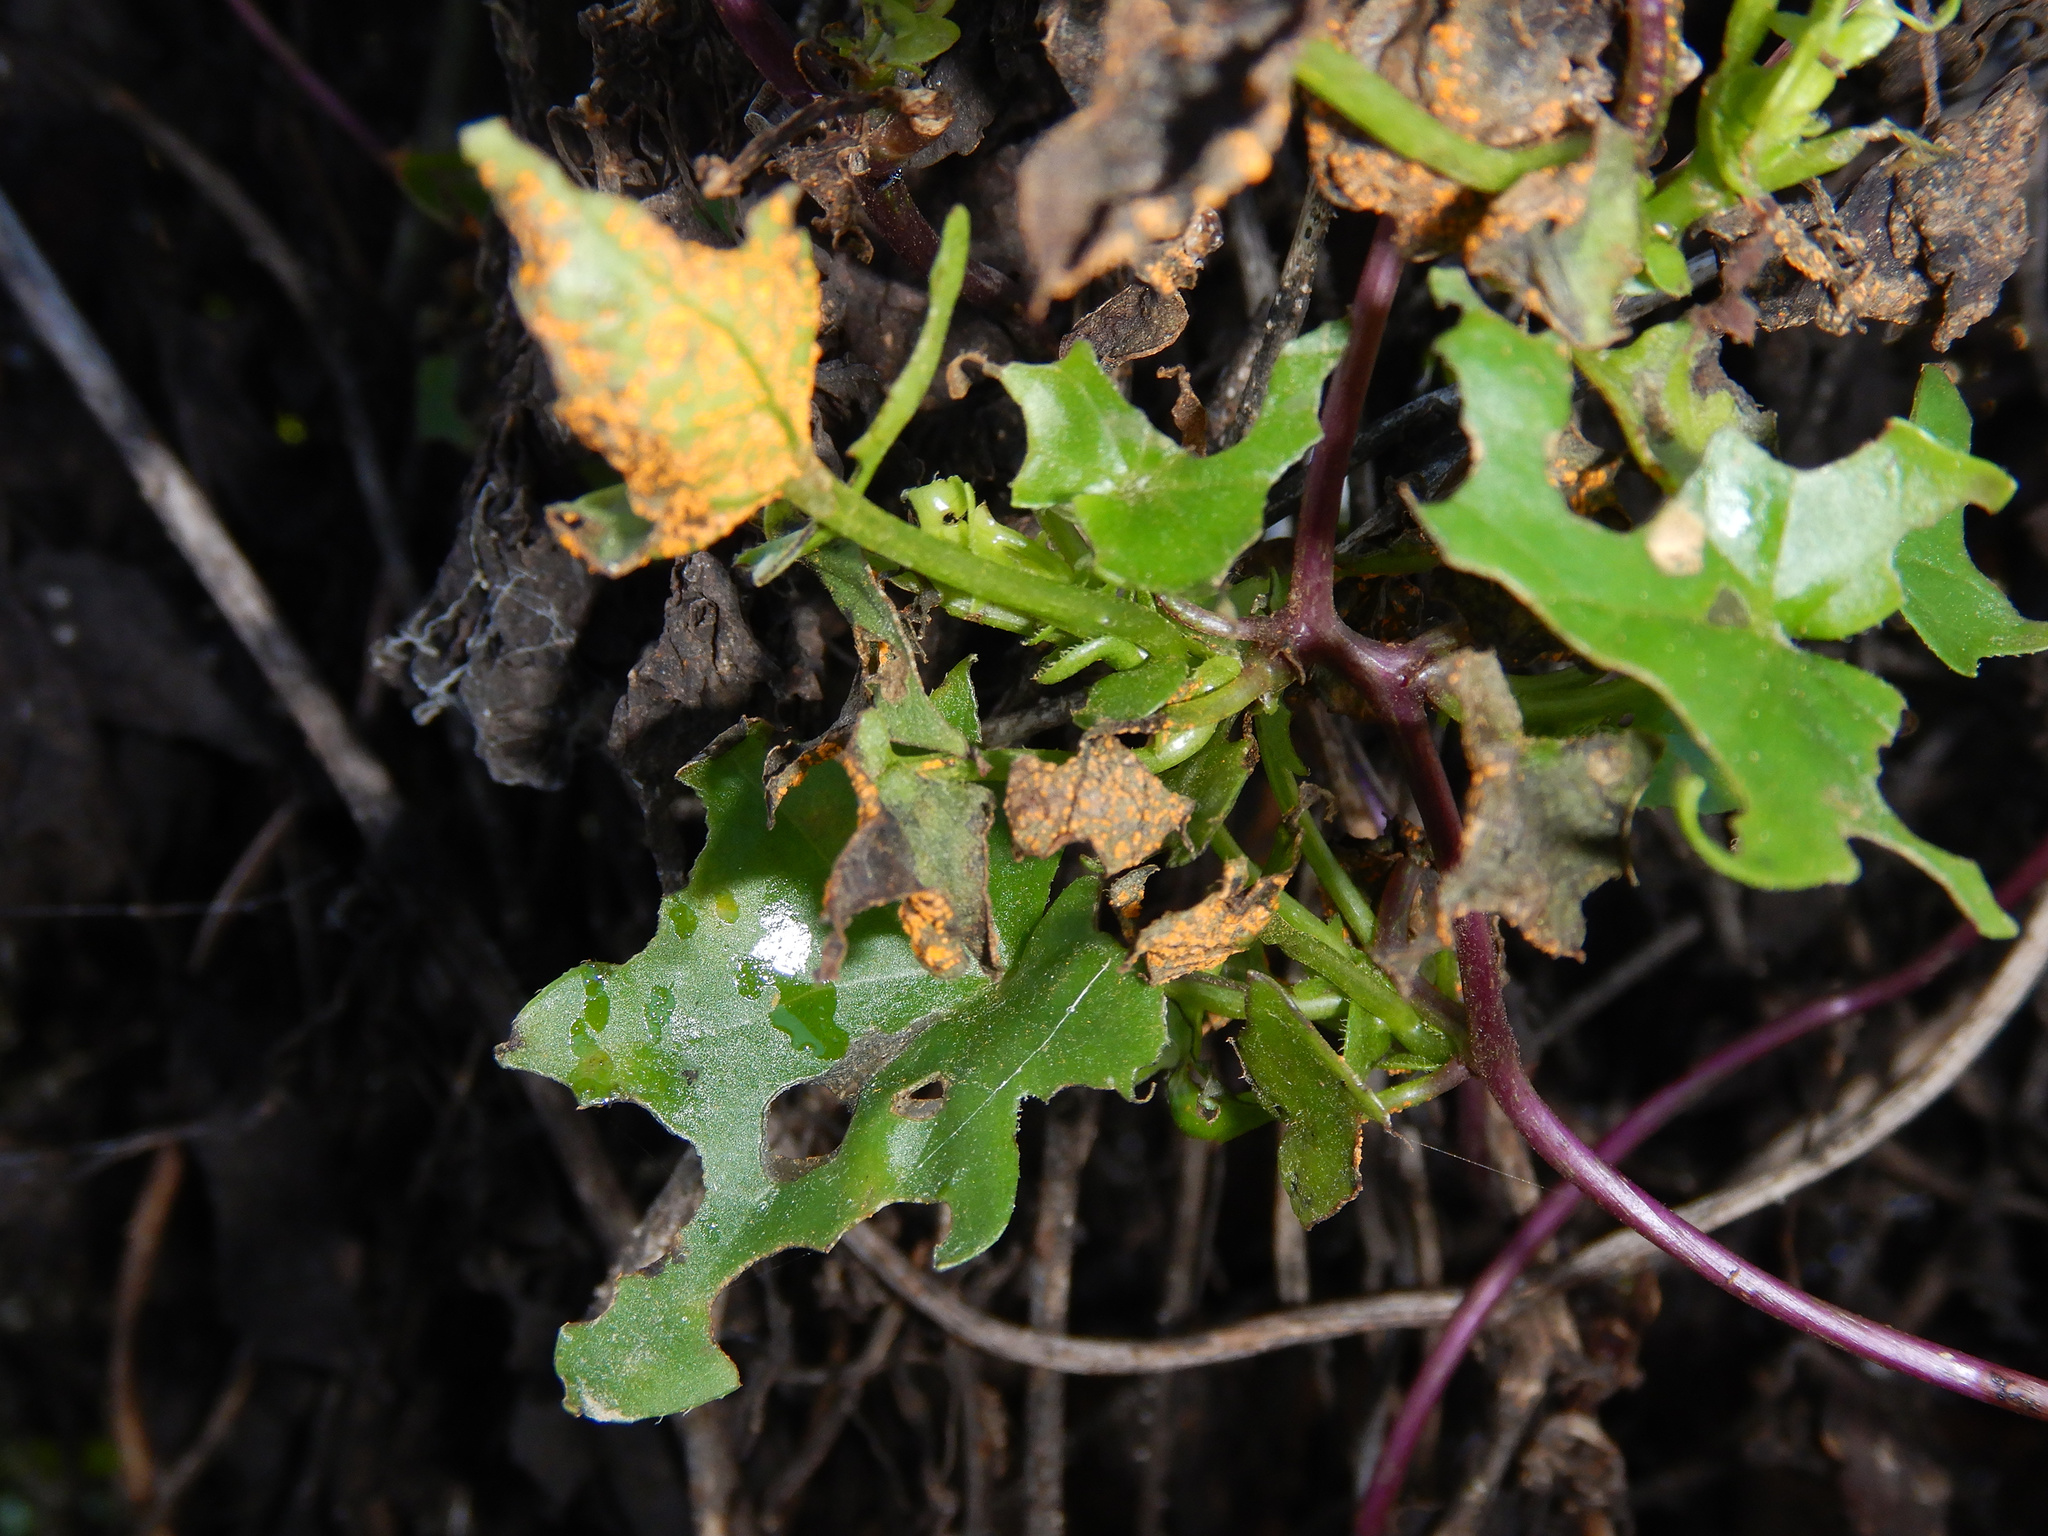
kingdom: Fungi
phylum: Basidiomycota
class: Pucciniomycetes
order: Pucciniales
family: Coleosporiaceae
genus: Coleosporium
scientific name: Coleosporium tussilaginis
